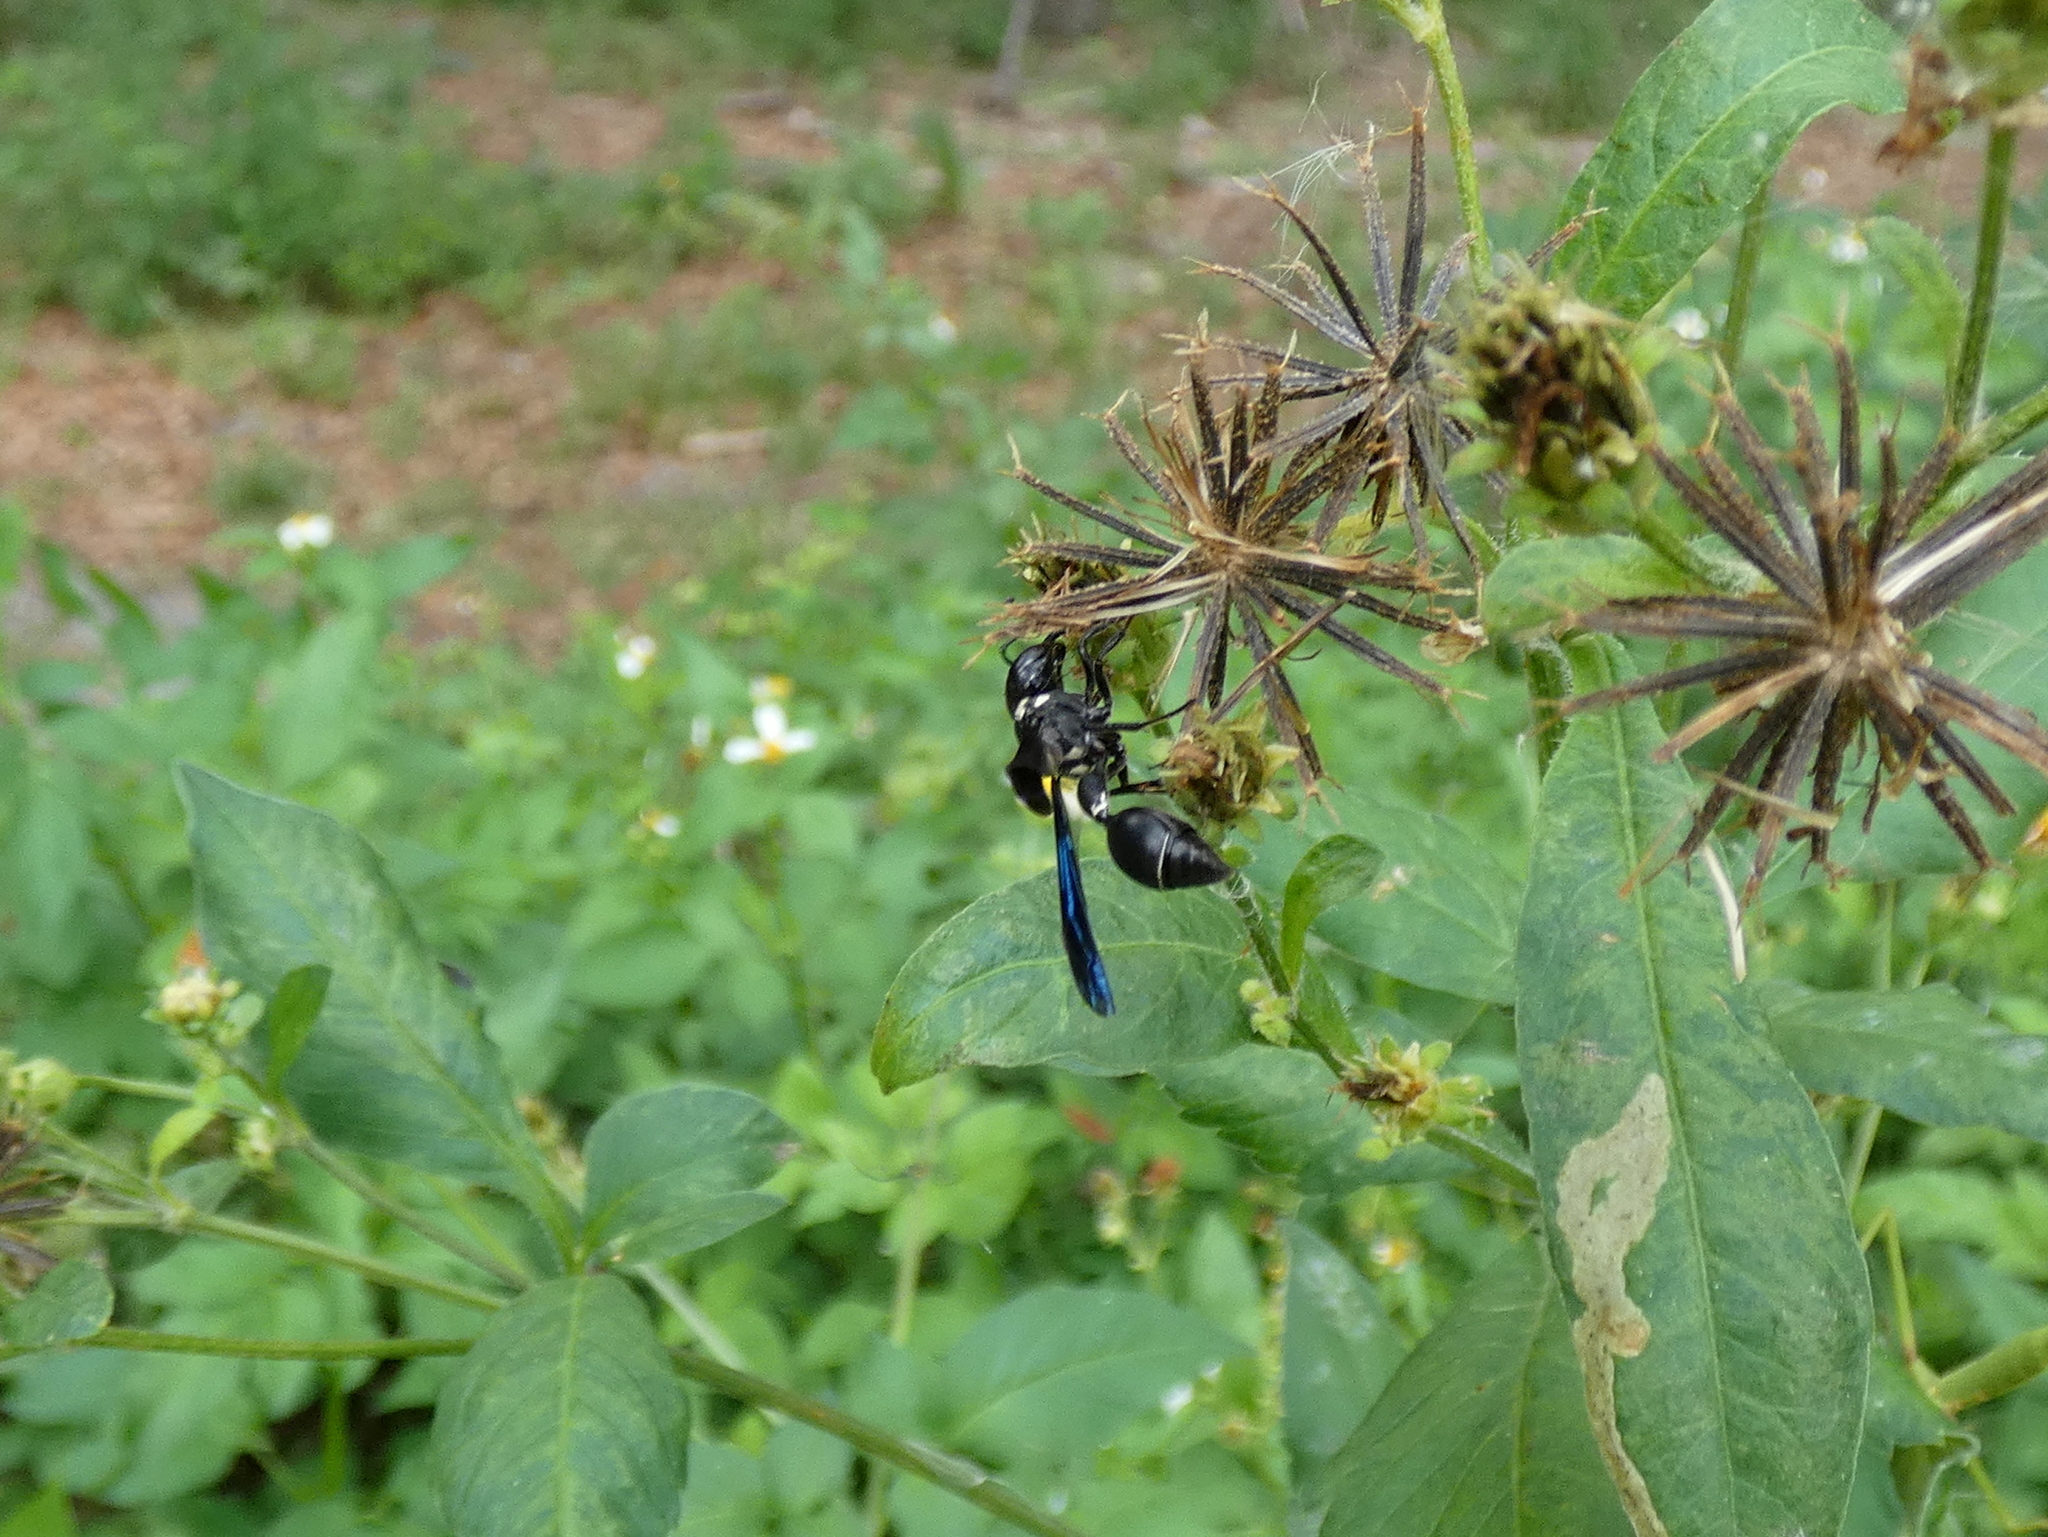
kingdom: Animalia
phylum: Arthropoda
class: Insecta
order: Hymenoptera
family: Eumenidae
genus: Zethus
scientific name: Zethus spinipes
